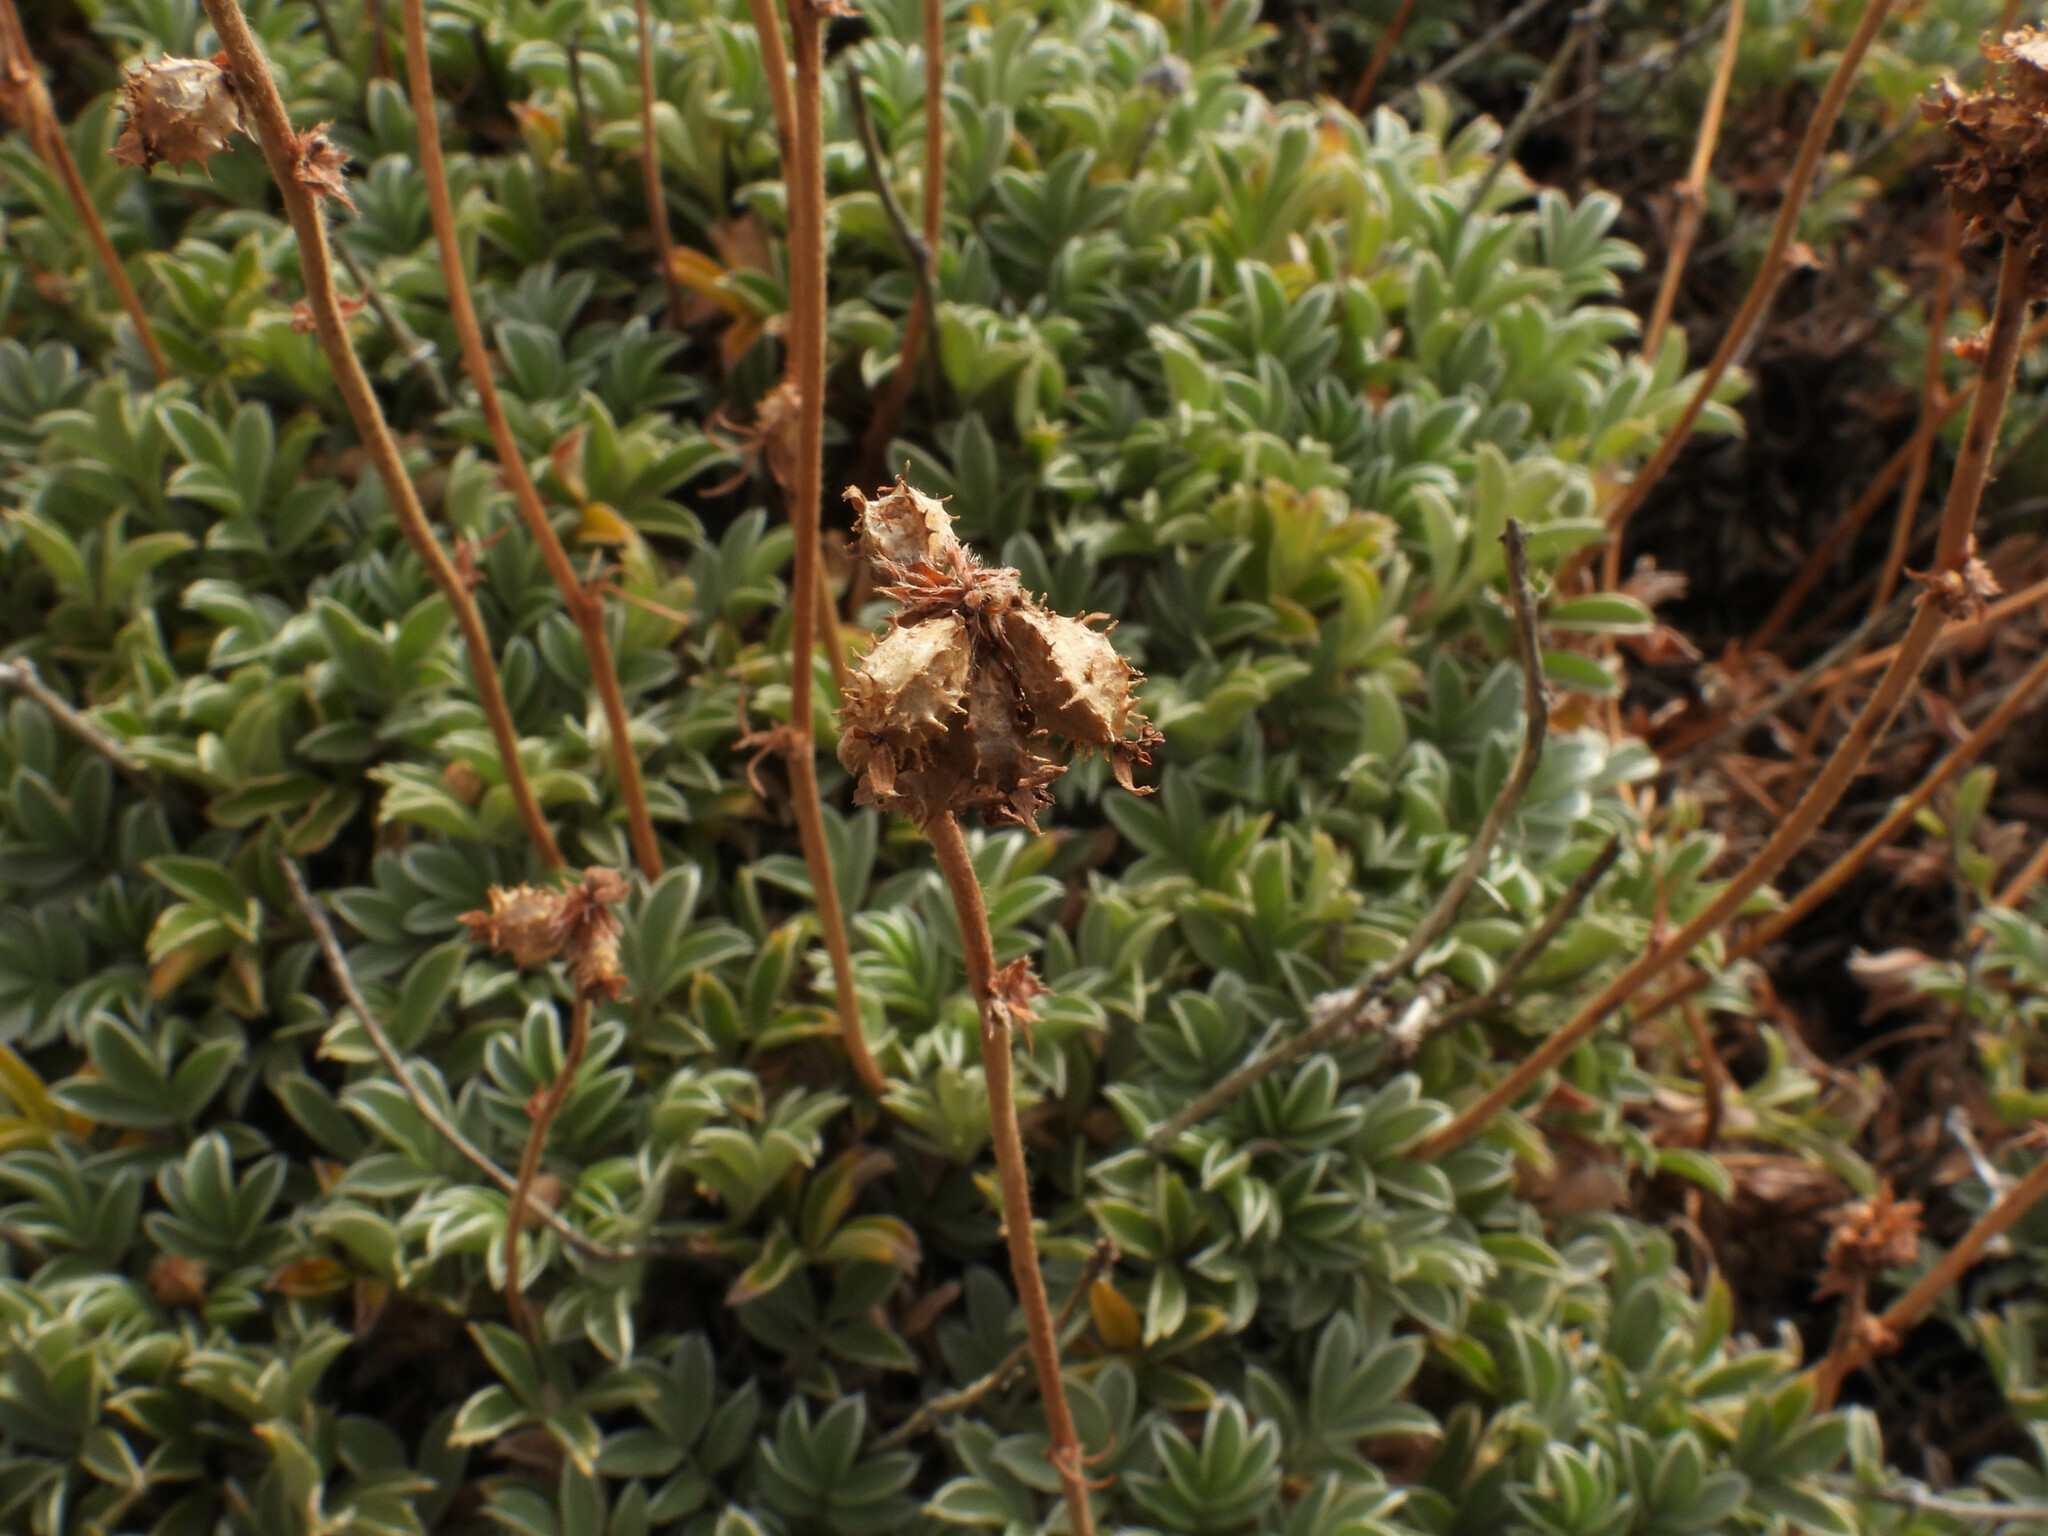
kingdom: Plantae
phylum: Tracheophyta
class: Magnoliopsida
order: Rosales
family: Rosaceae
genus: Acaena
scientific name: Acaena splendens
